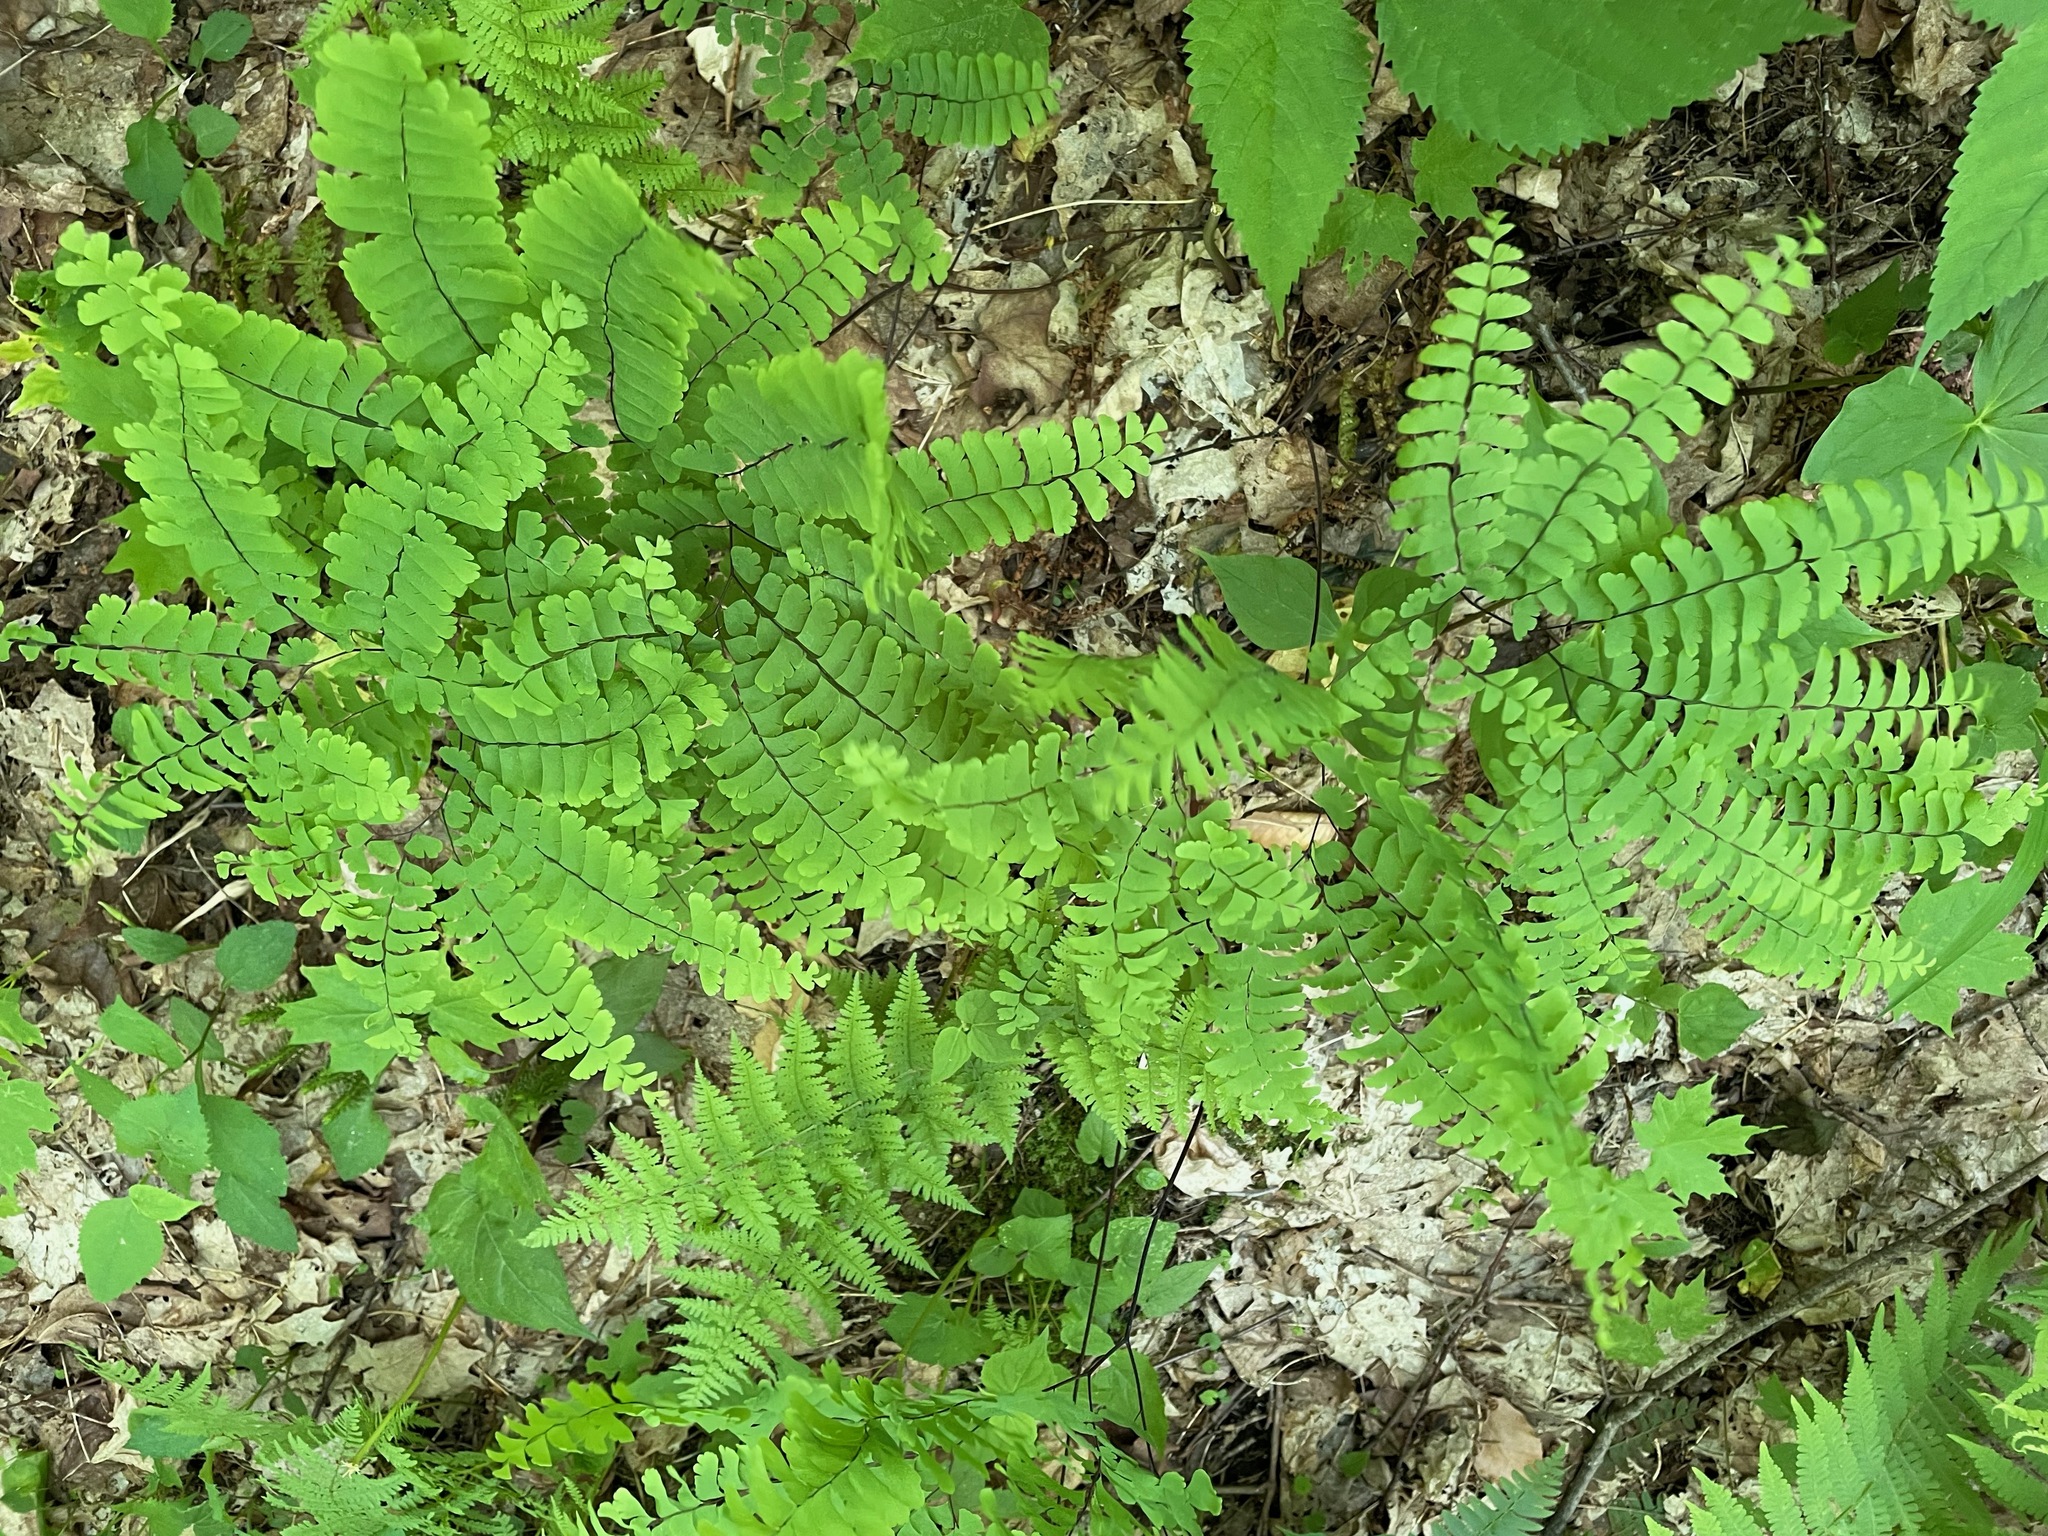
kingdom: Plantae
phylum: Tracheophyta
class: Polypodiopsida
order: Polypodiales
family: Pteridaceae
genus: Adiantum
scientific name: Adiantum pedatum
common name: Five-finger fern
